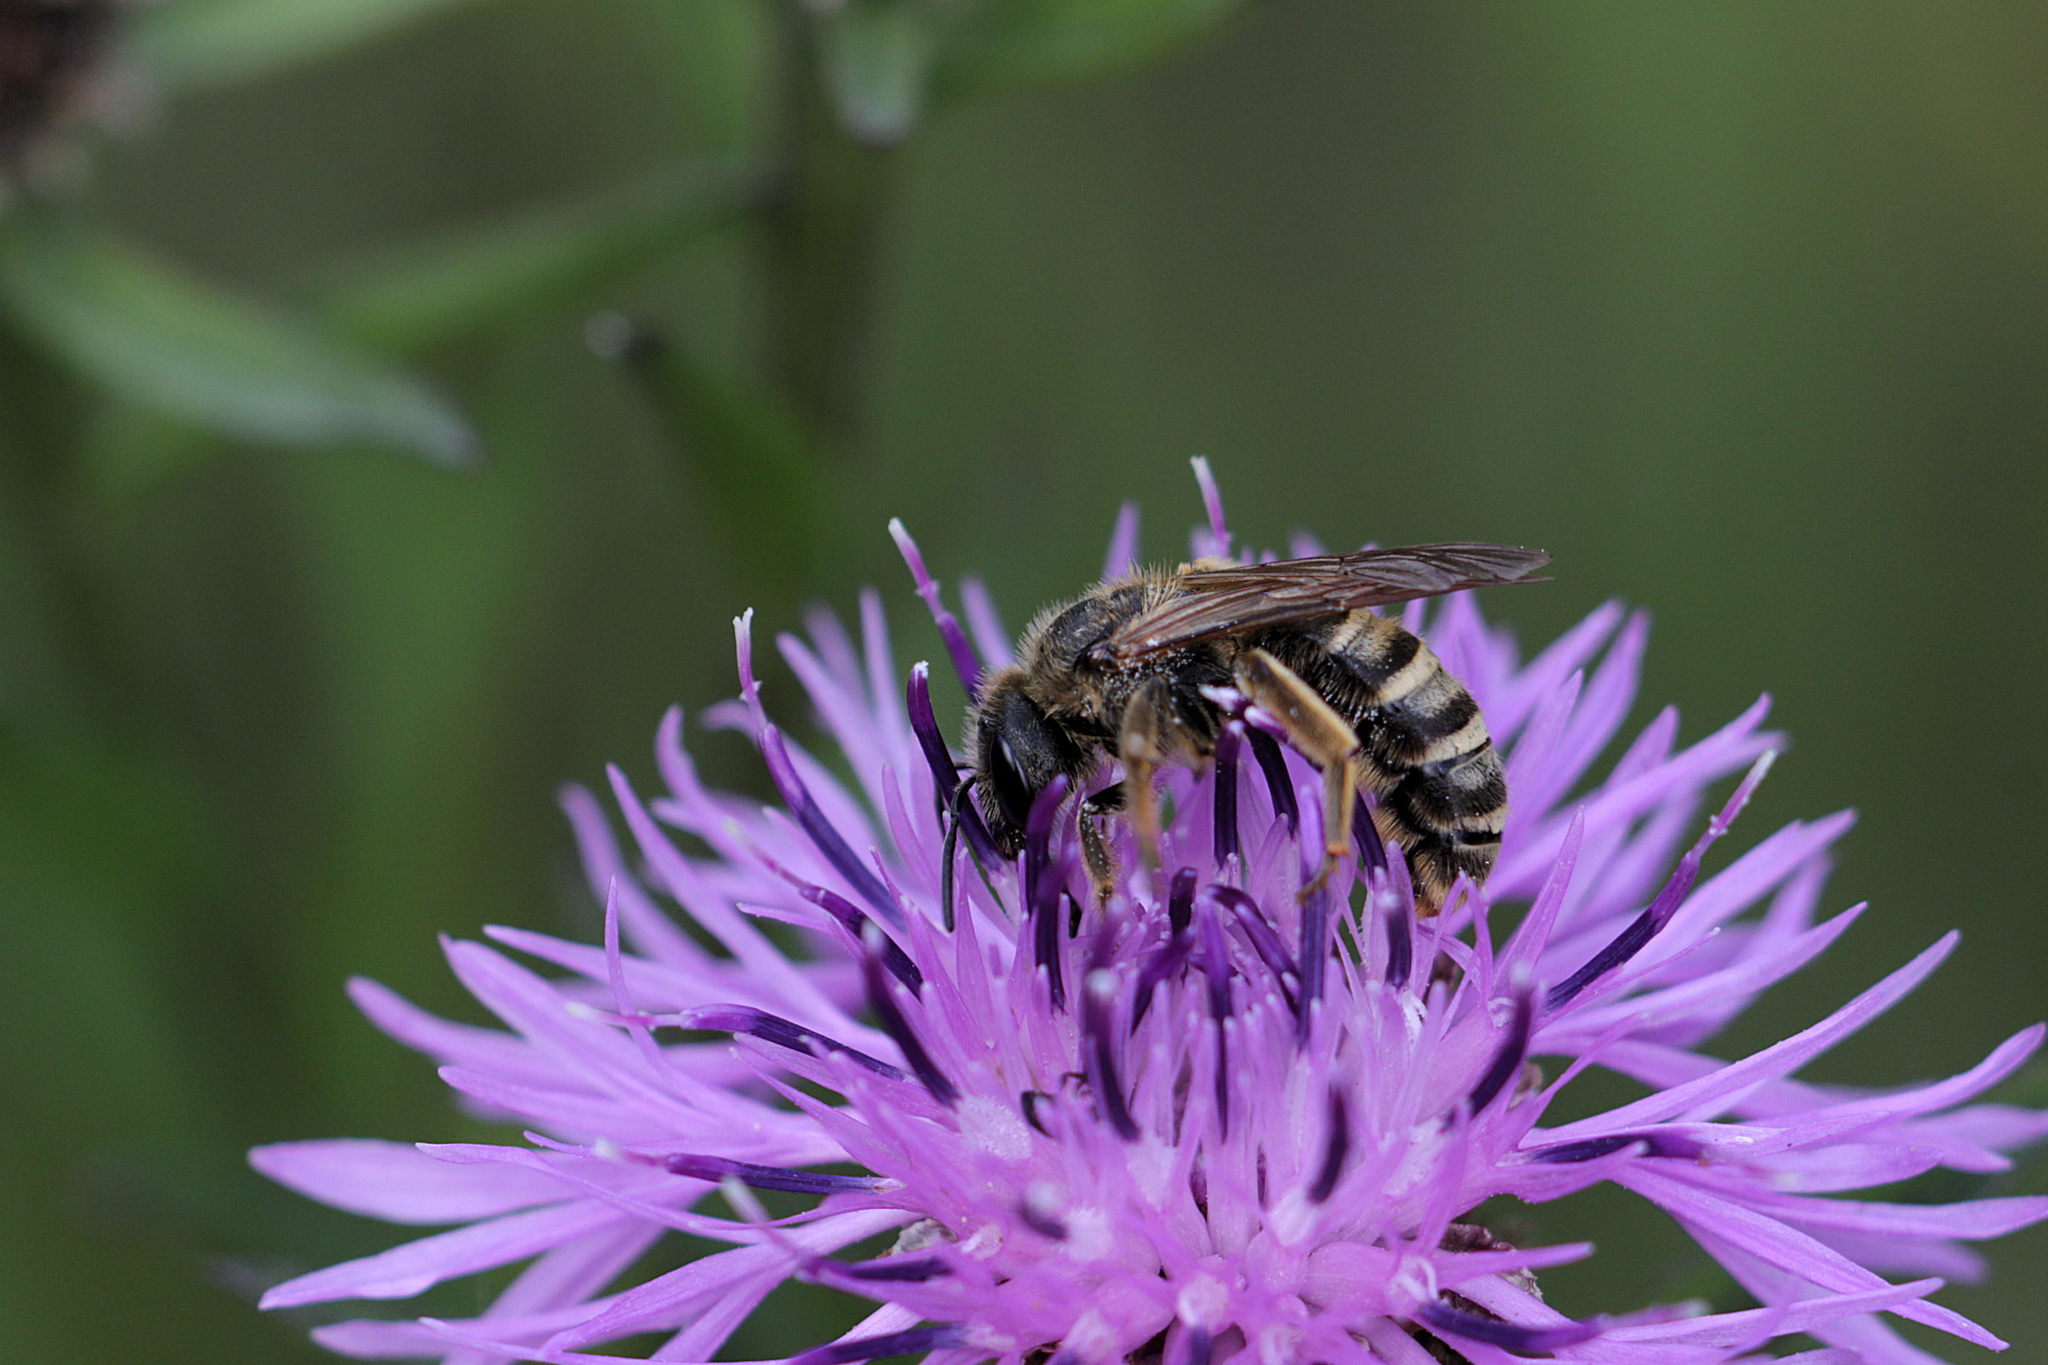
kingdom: Animalia
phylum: Arthropoda
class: Insecta
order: Hymenoptera
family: Halictidae
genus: Halictus
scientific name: Halictus scabiosae
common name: Great banded furrow bee
